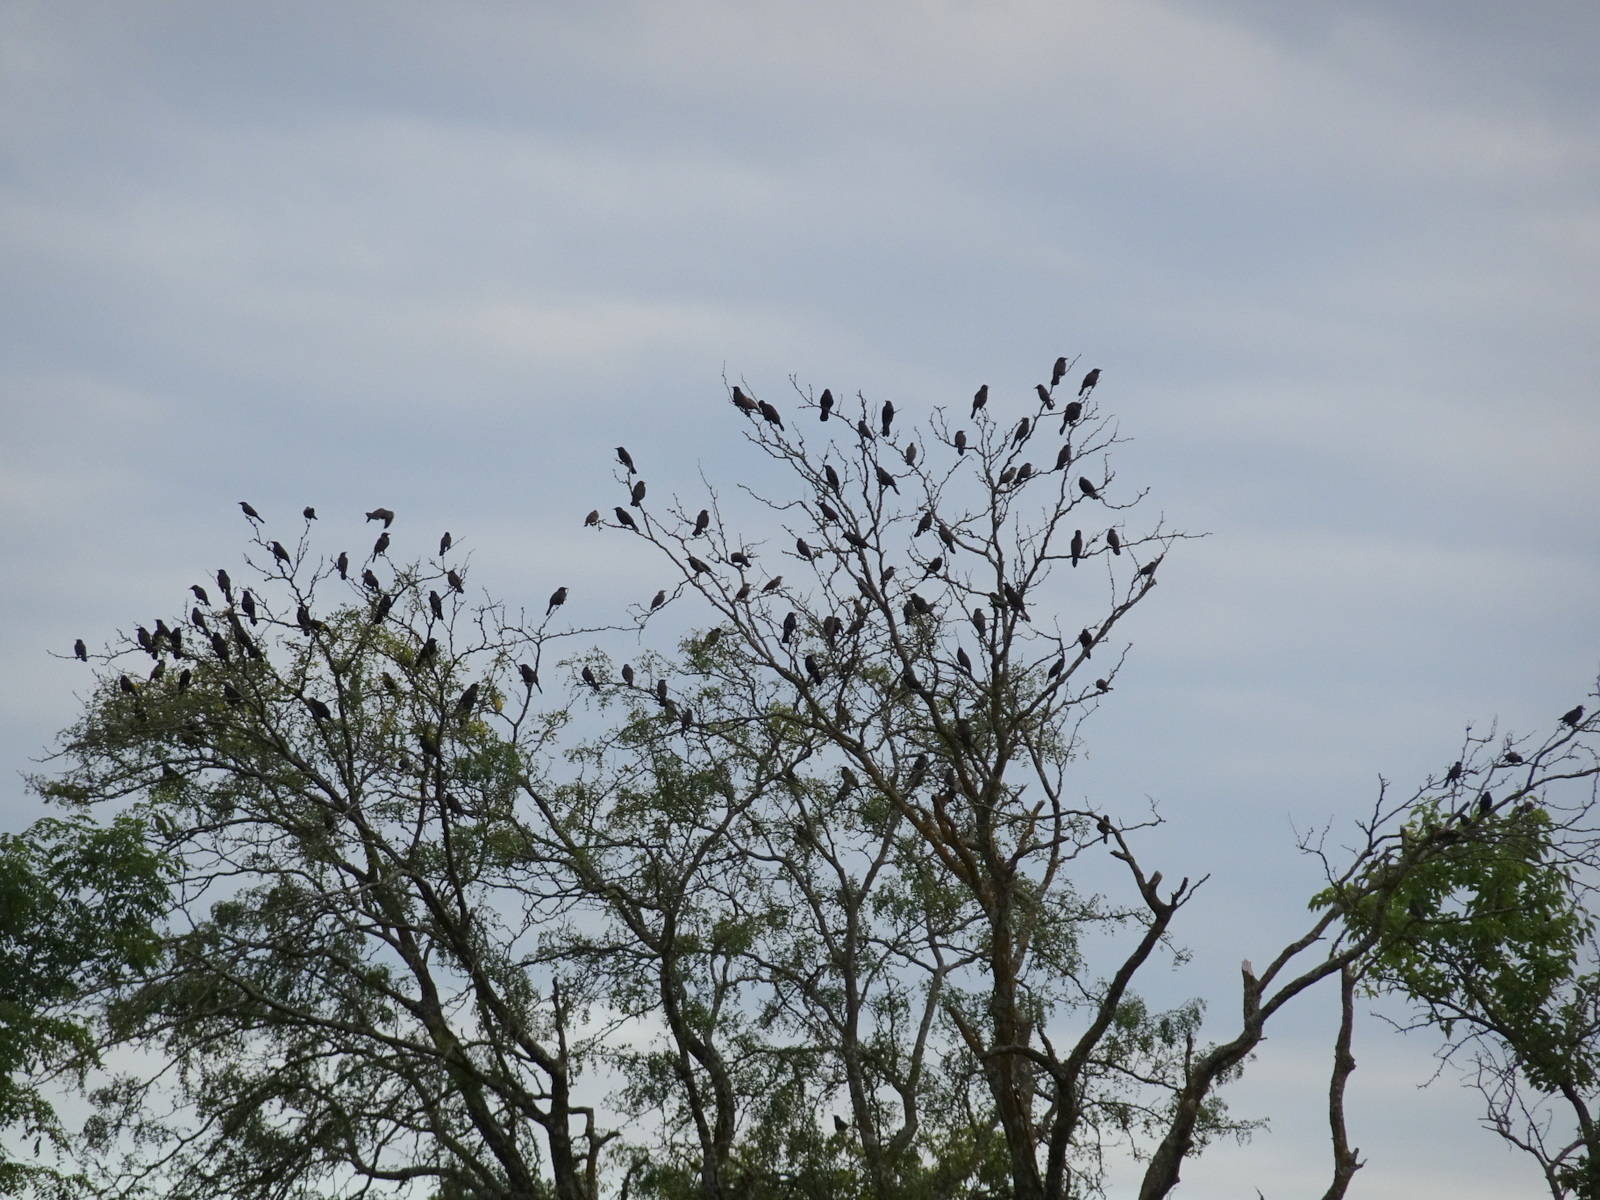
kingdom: Animalia
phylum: Chordata
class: Aves
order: Passeriformes
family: Icteridae
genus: Quiscalus
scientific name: Quiscalus quiscula
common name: Common grackle
